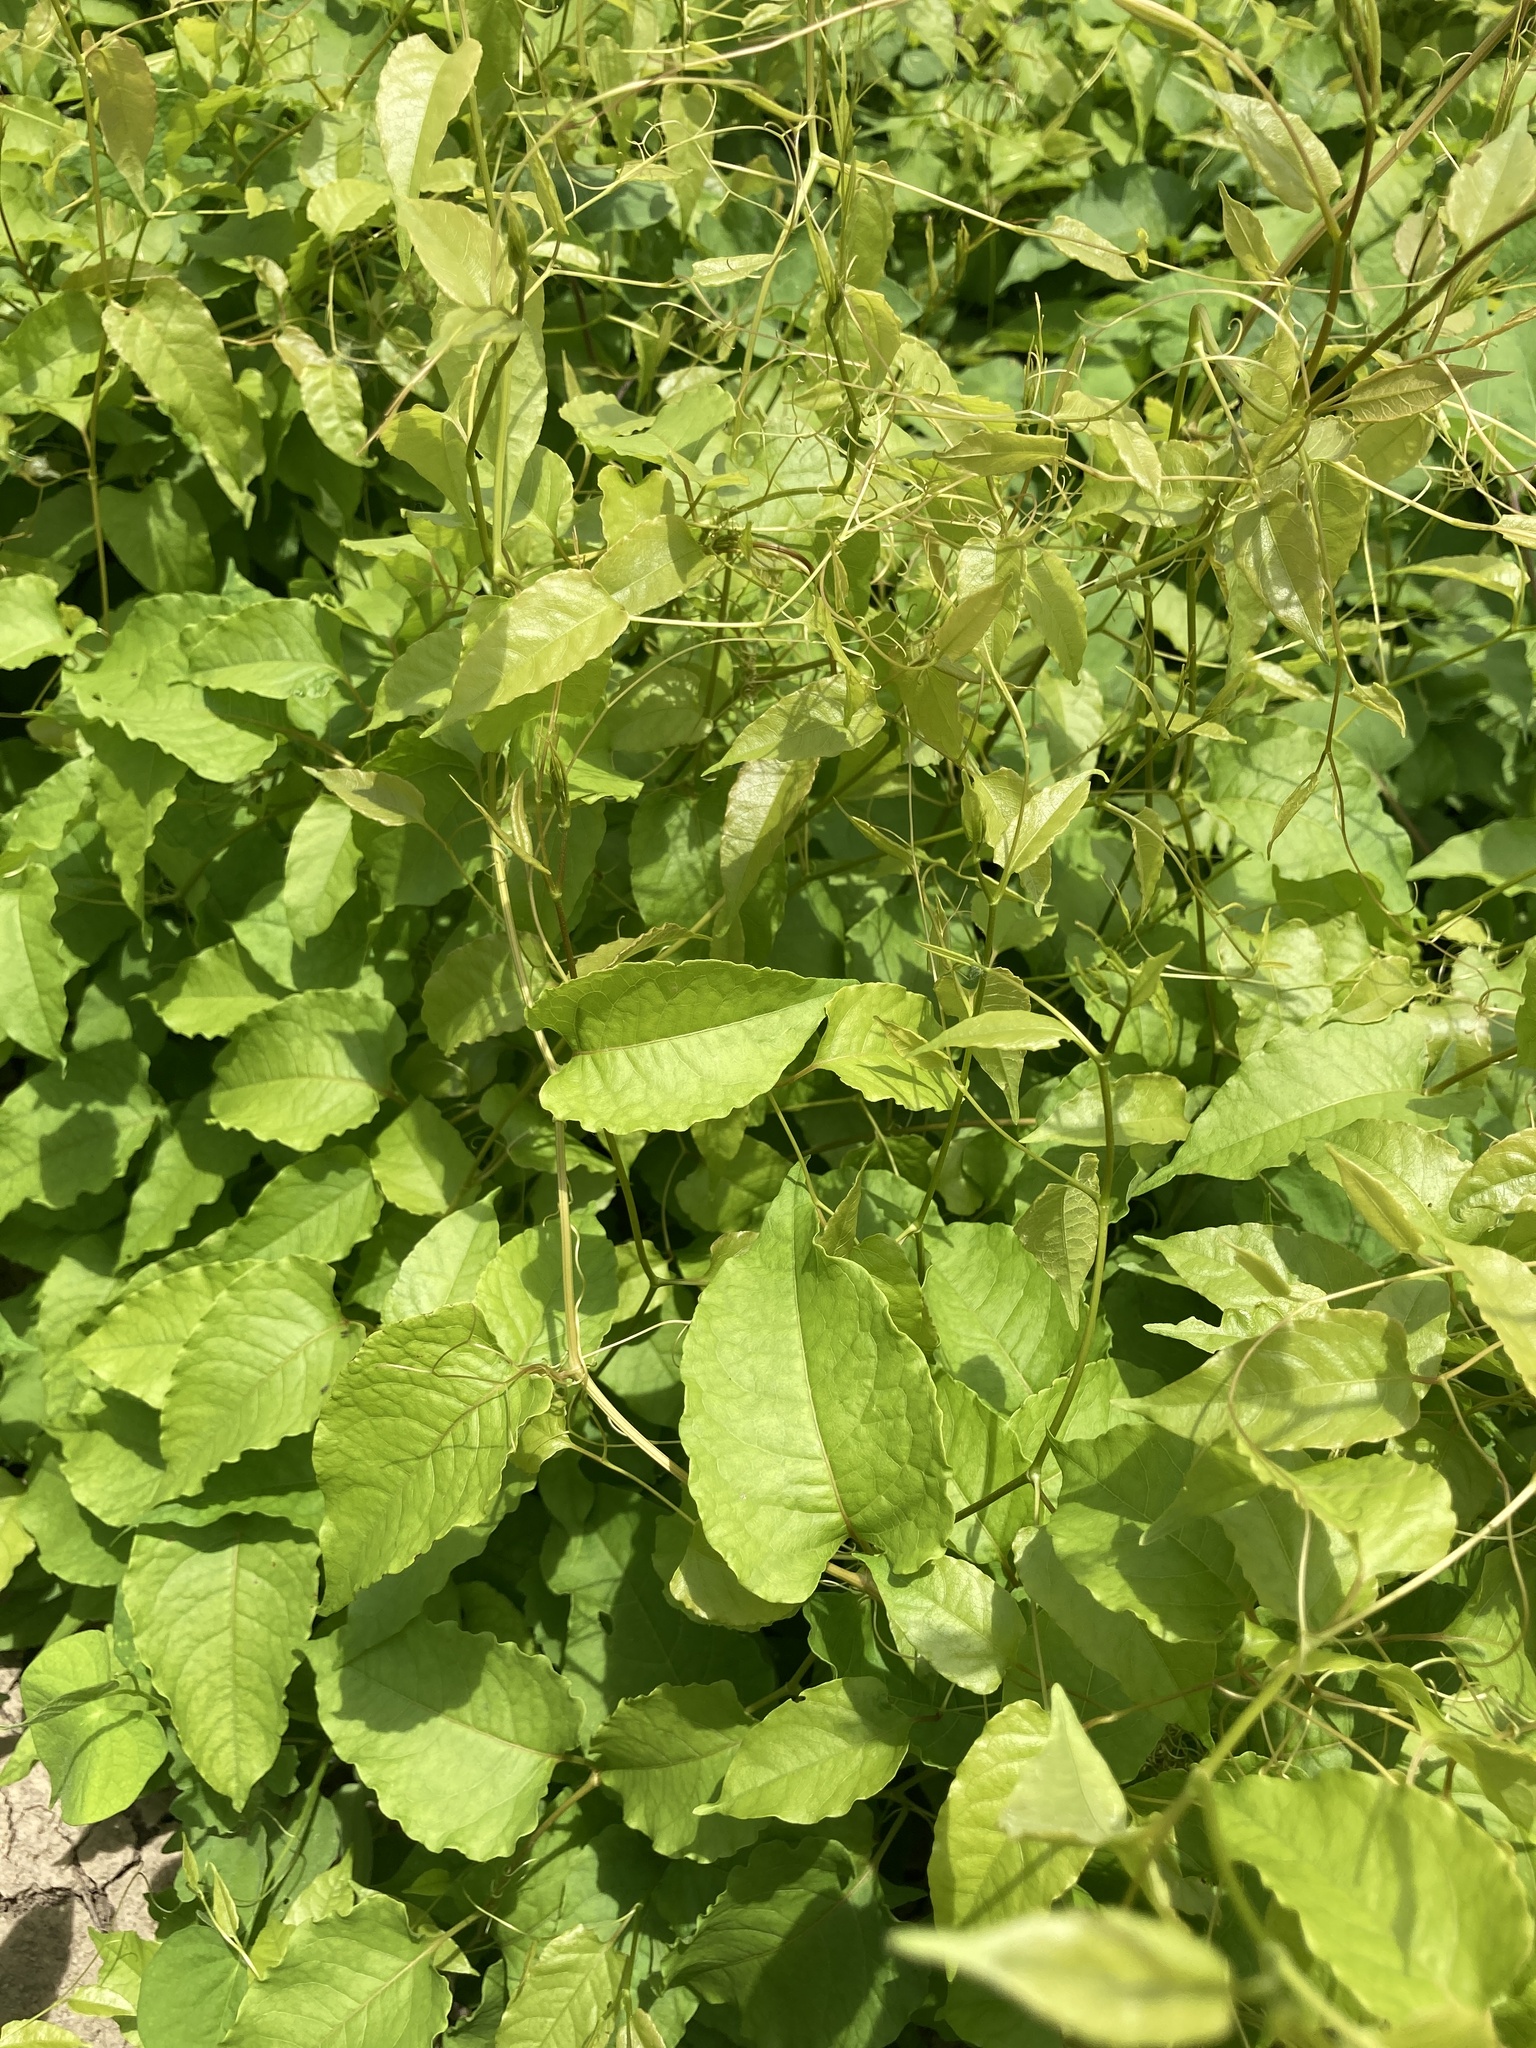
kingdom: Plantae
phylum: Tracheophyta
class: Magnoliopsida
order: Caryophyllales
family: Polygonaceae
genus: Brunnichia
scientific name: Brunnichia ovata
